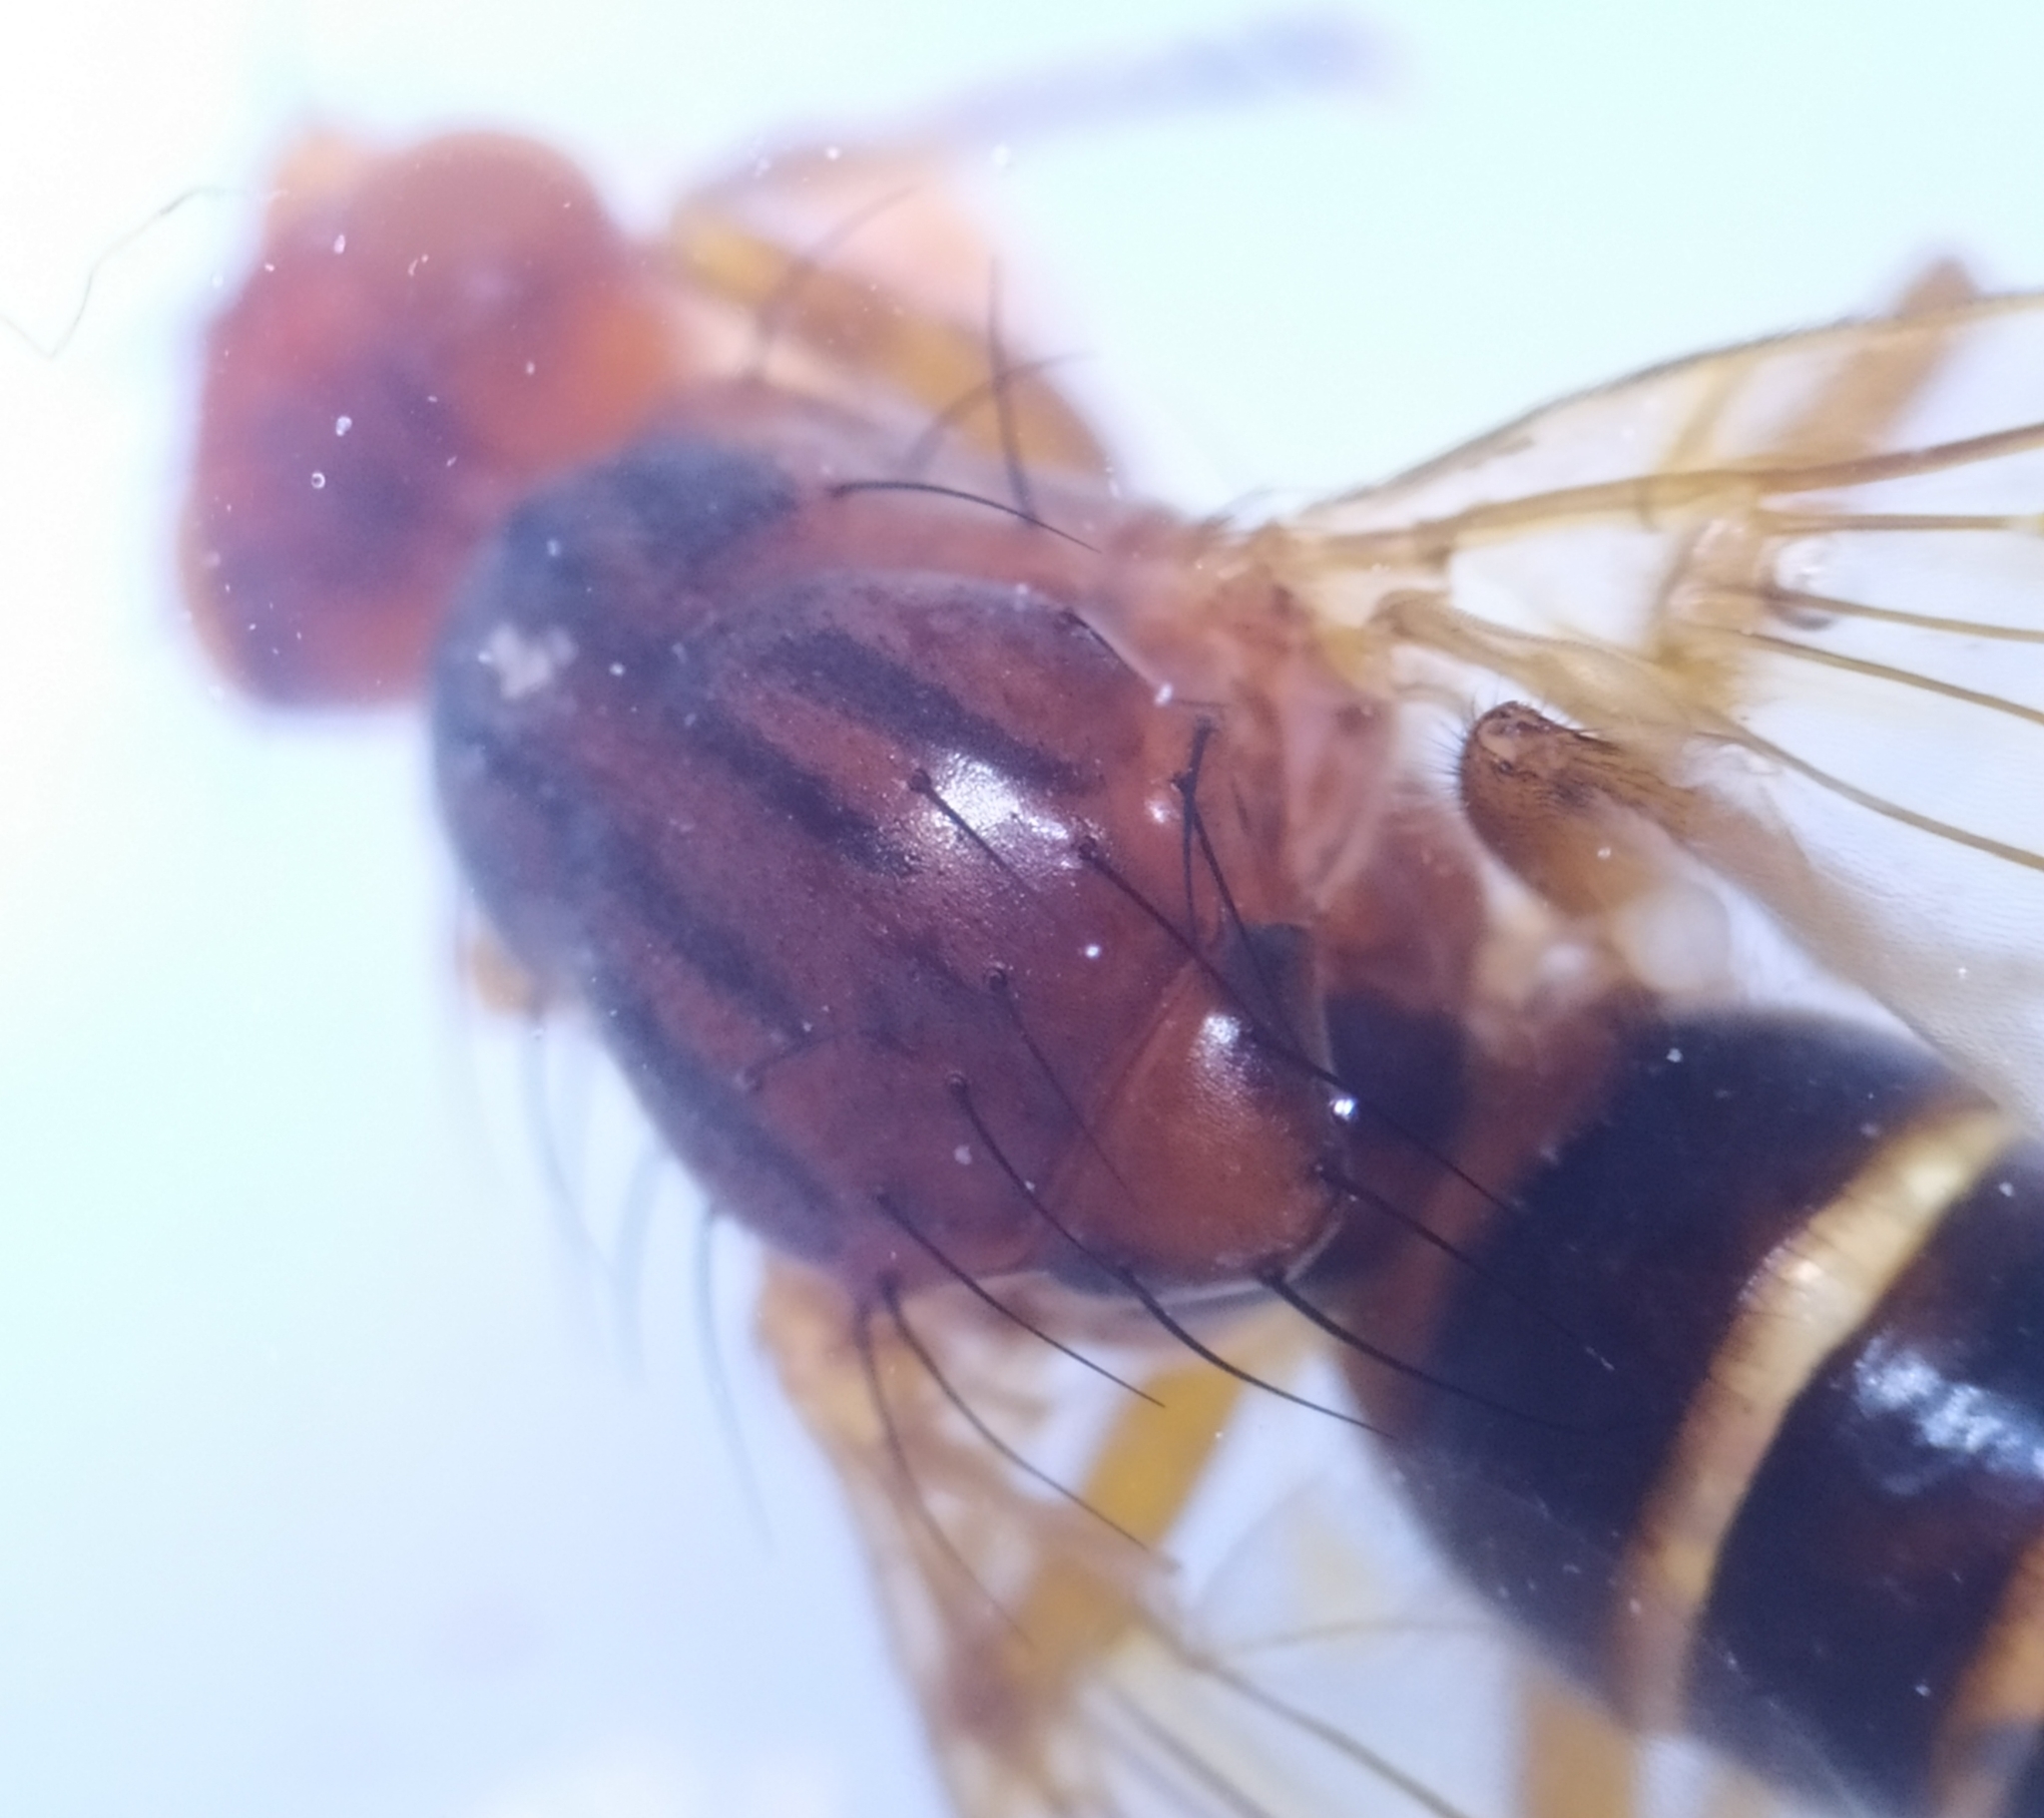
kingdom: Animalia
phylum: Arthropoda
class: Insecta
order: Diptera
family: Dryomyzidae
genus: Pseudoneuroctena
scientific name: Pseudoneuroctena senilis
